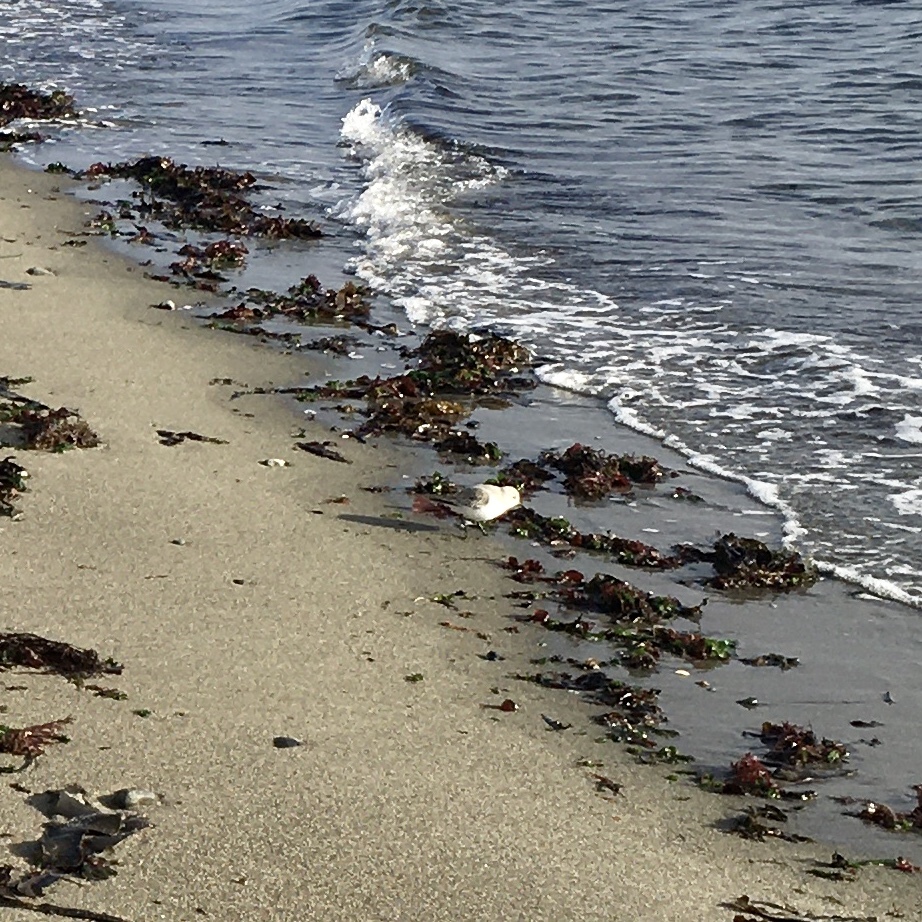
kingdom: Animalia
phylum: Chordata
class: Aves
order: Charadriiformes
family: Scolopacidae
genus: Calidris
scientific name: Calidris alba
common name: Sanderling
